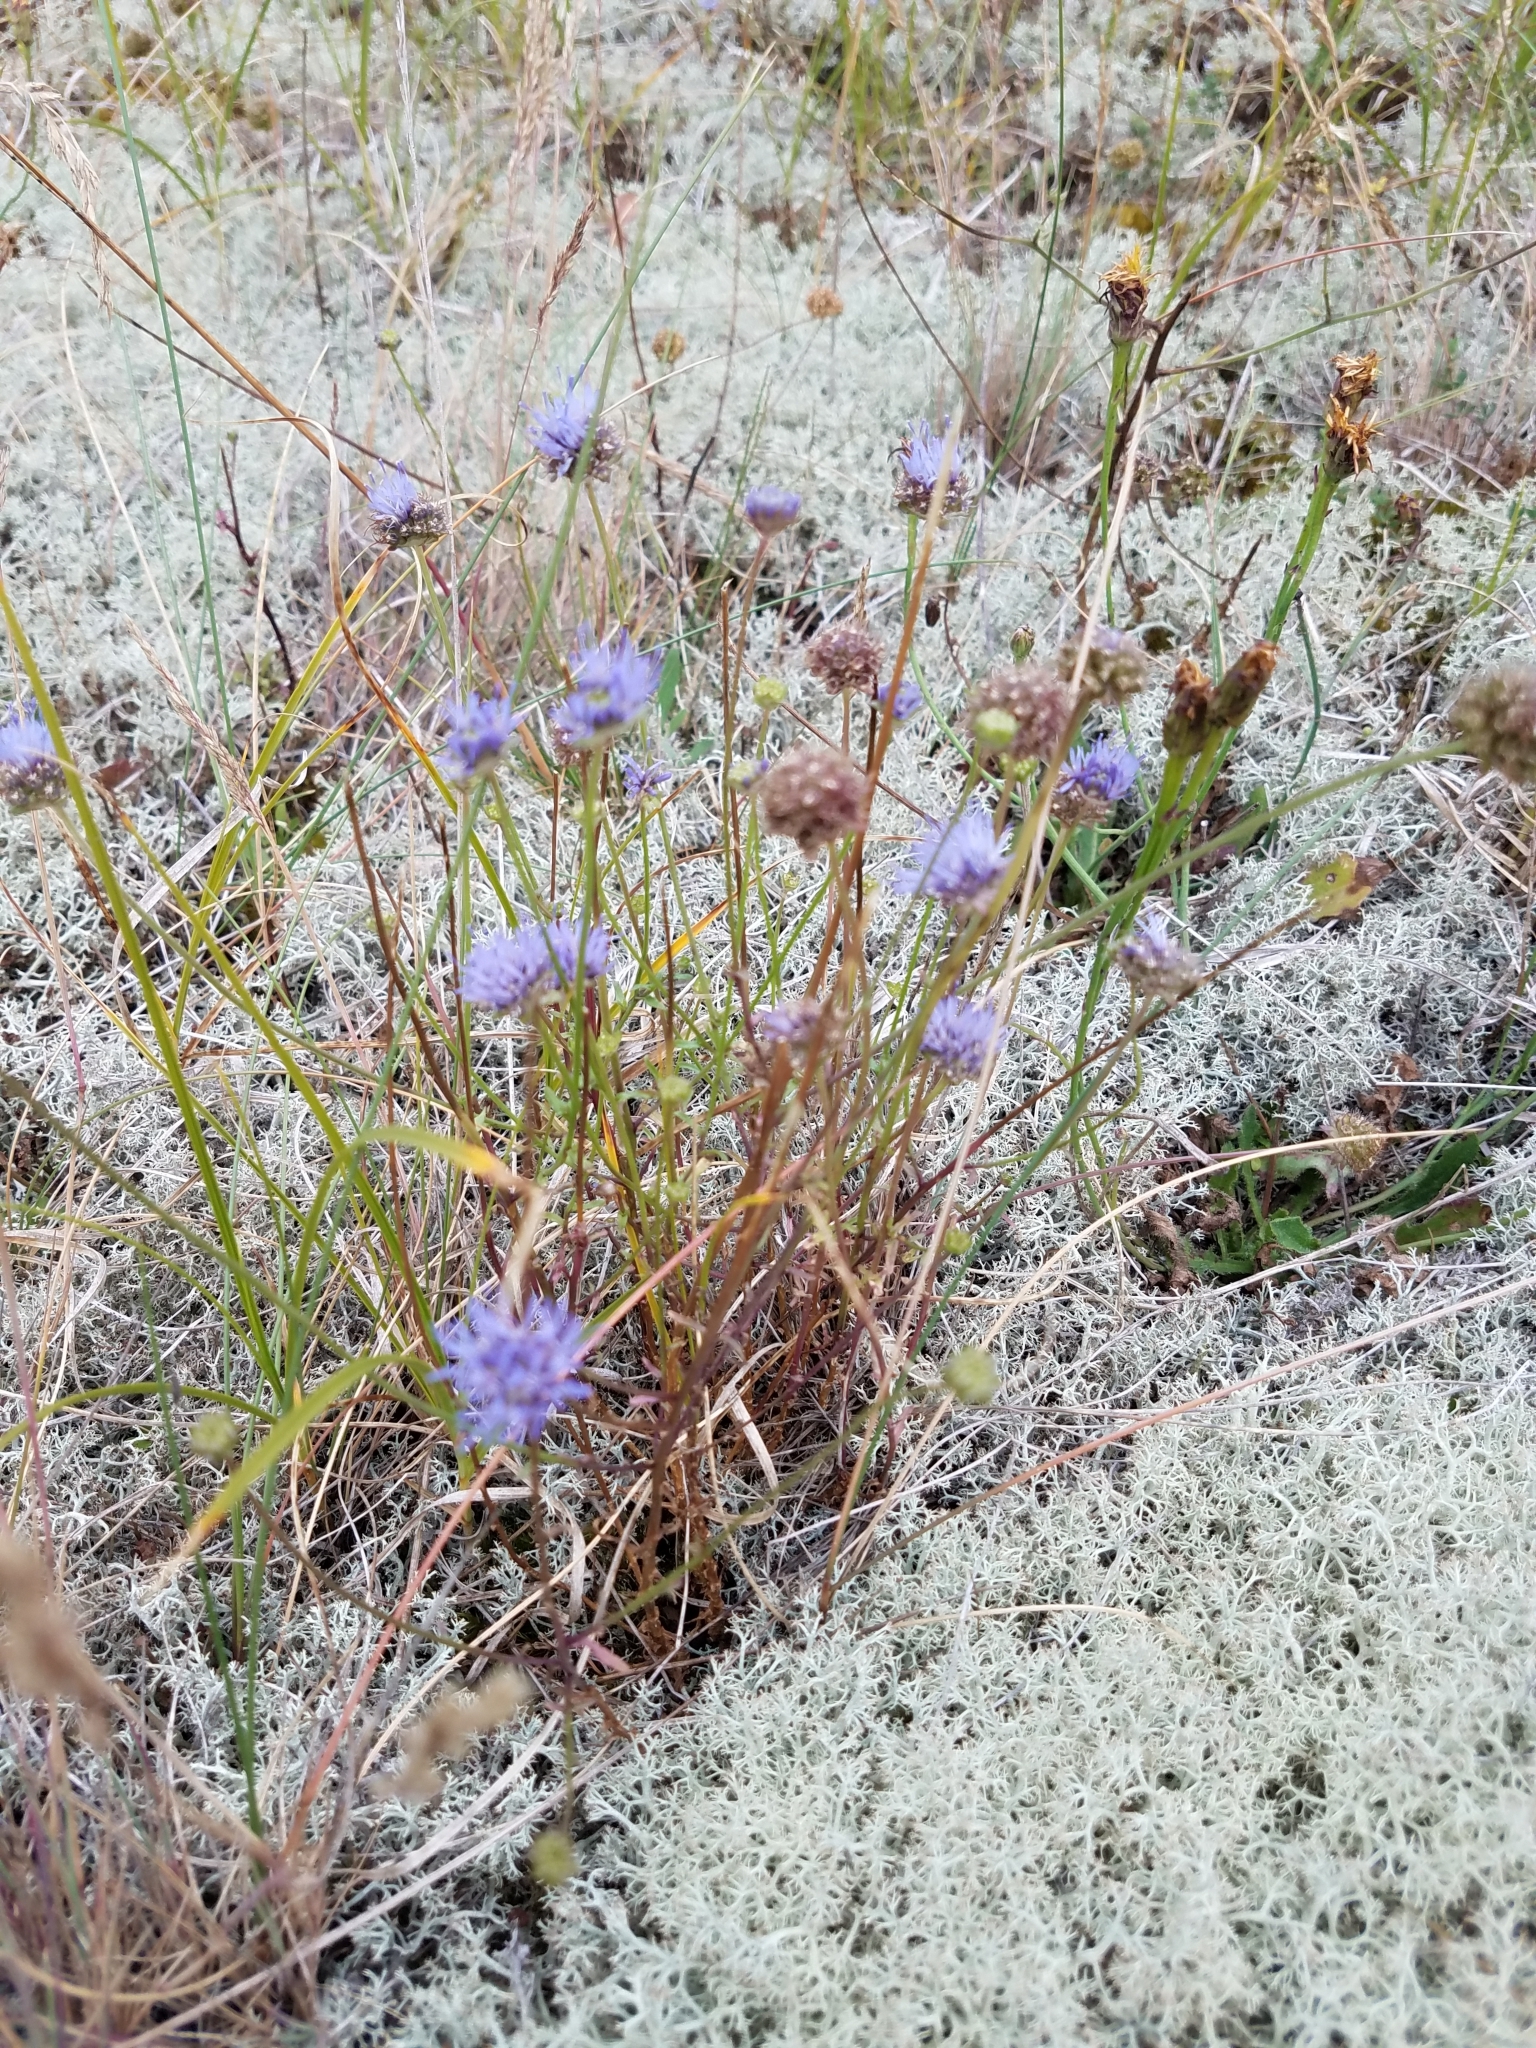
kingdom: Plantae
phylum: Tracheophyta
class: Magnoliopsida
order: Asterales
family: Campanulaceae
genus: Jasione
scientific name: Jasione montana
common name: Sheep's-bit
